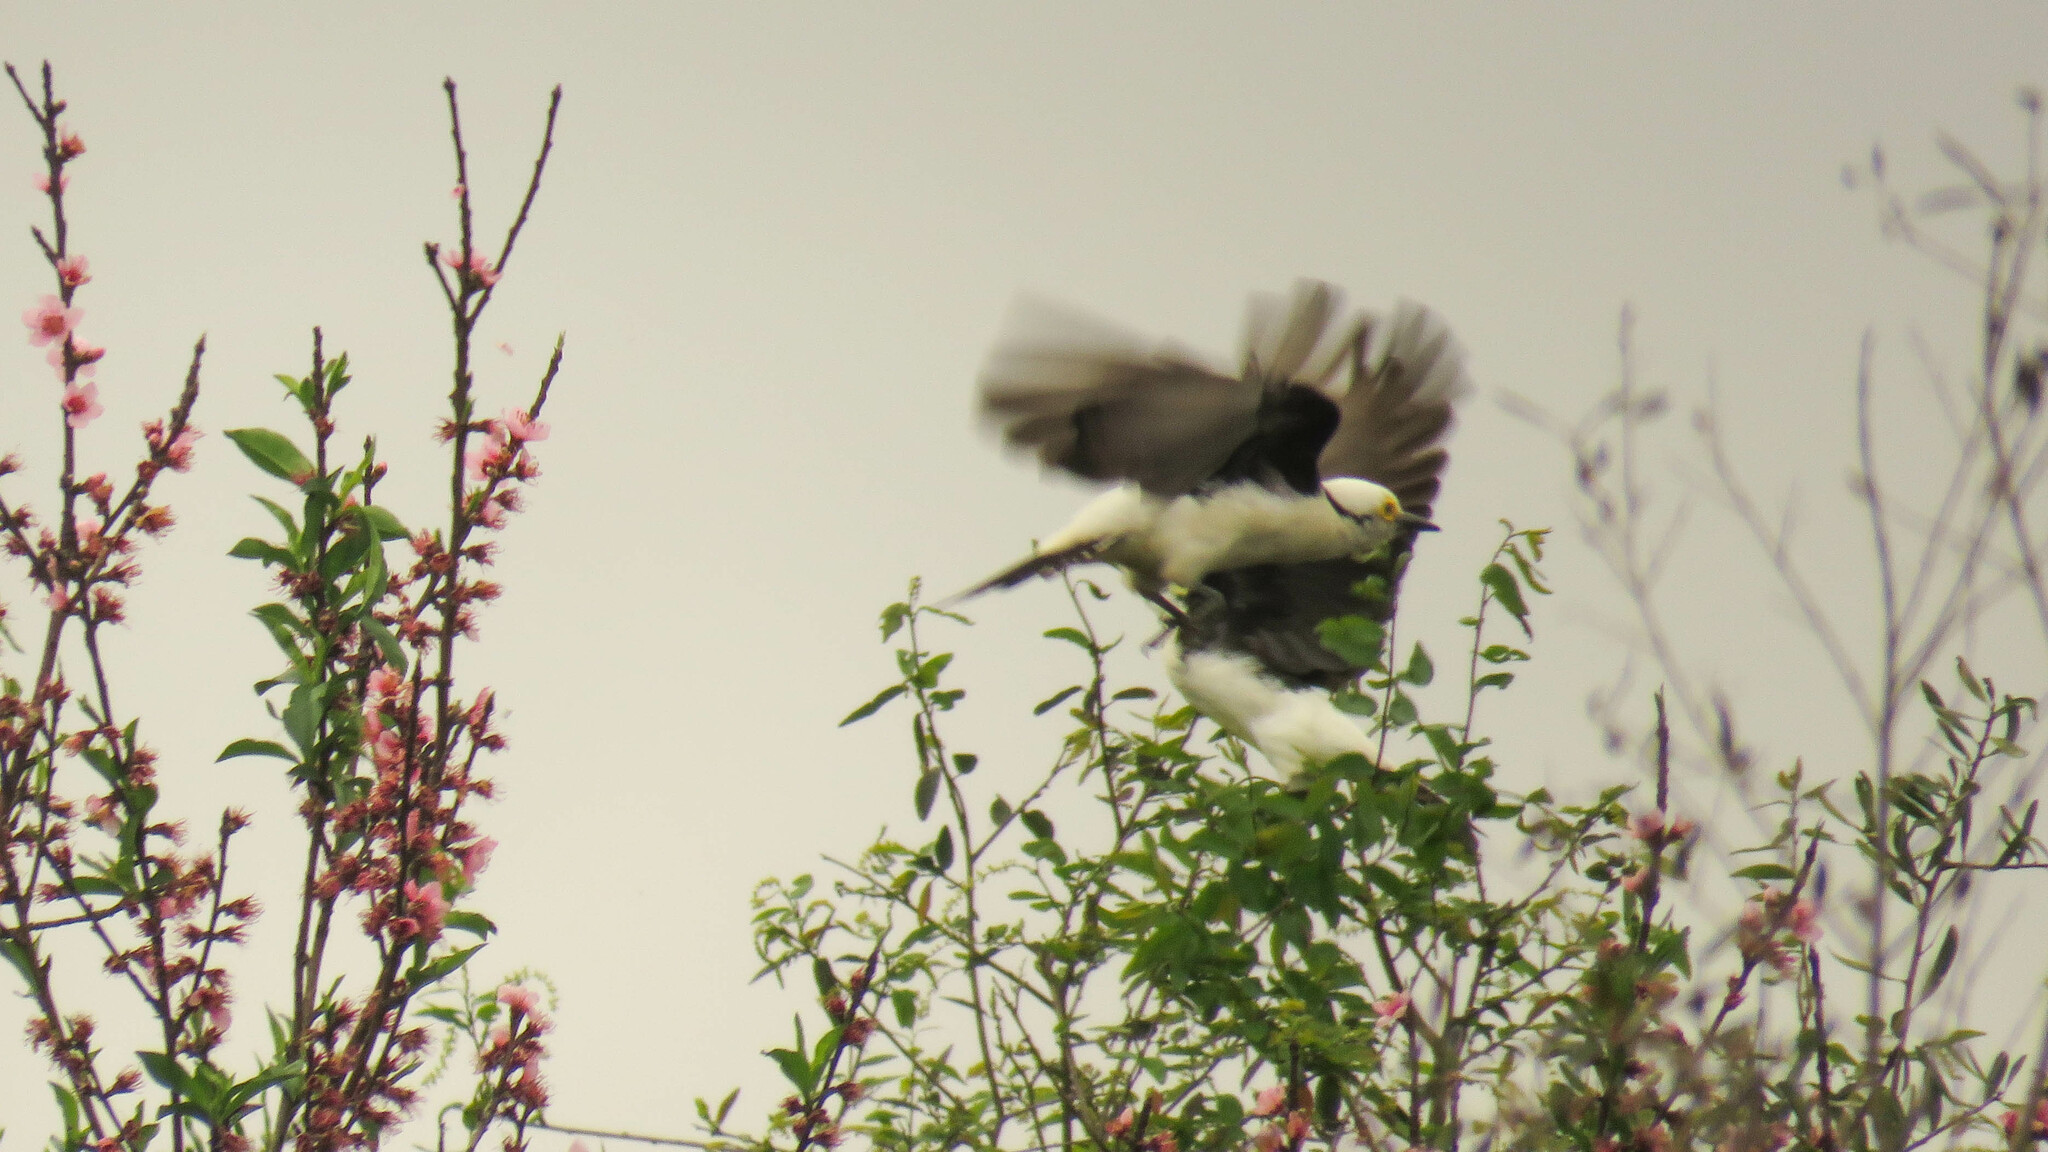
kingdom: Animalia
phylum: Chordata
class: Aves
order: Piciformes
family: Picidae
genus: Melanerpes
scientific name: Melanerpes candidus
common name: White woodpecker
